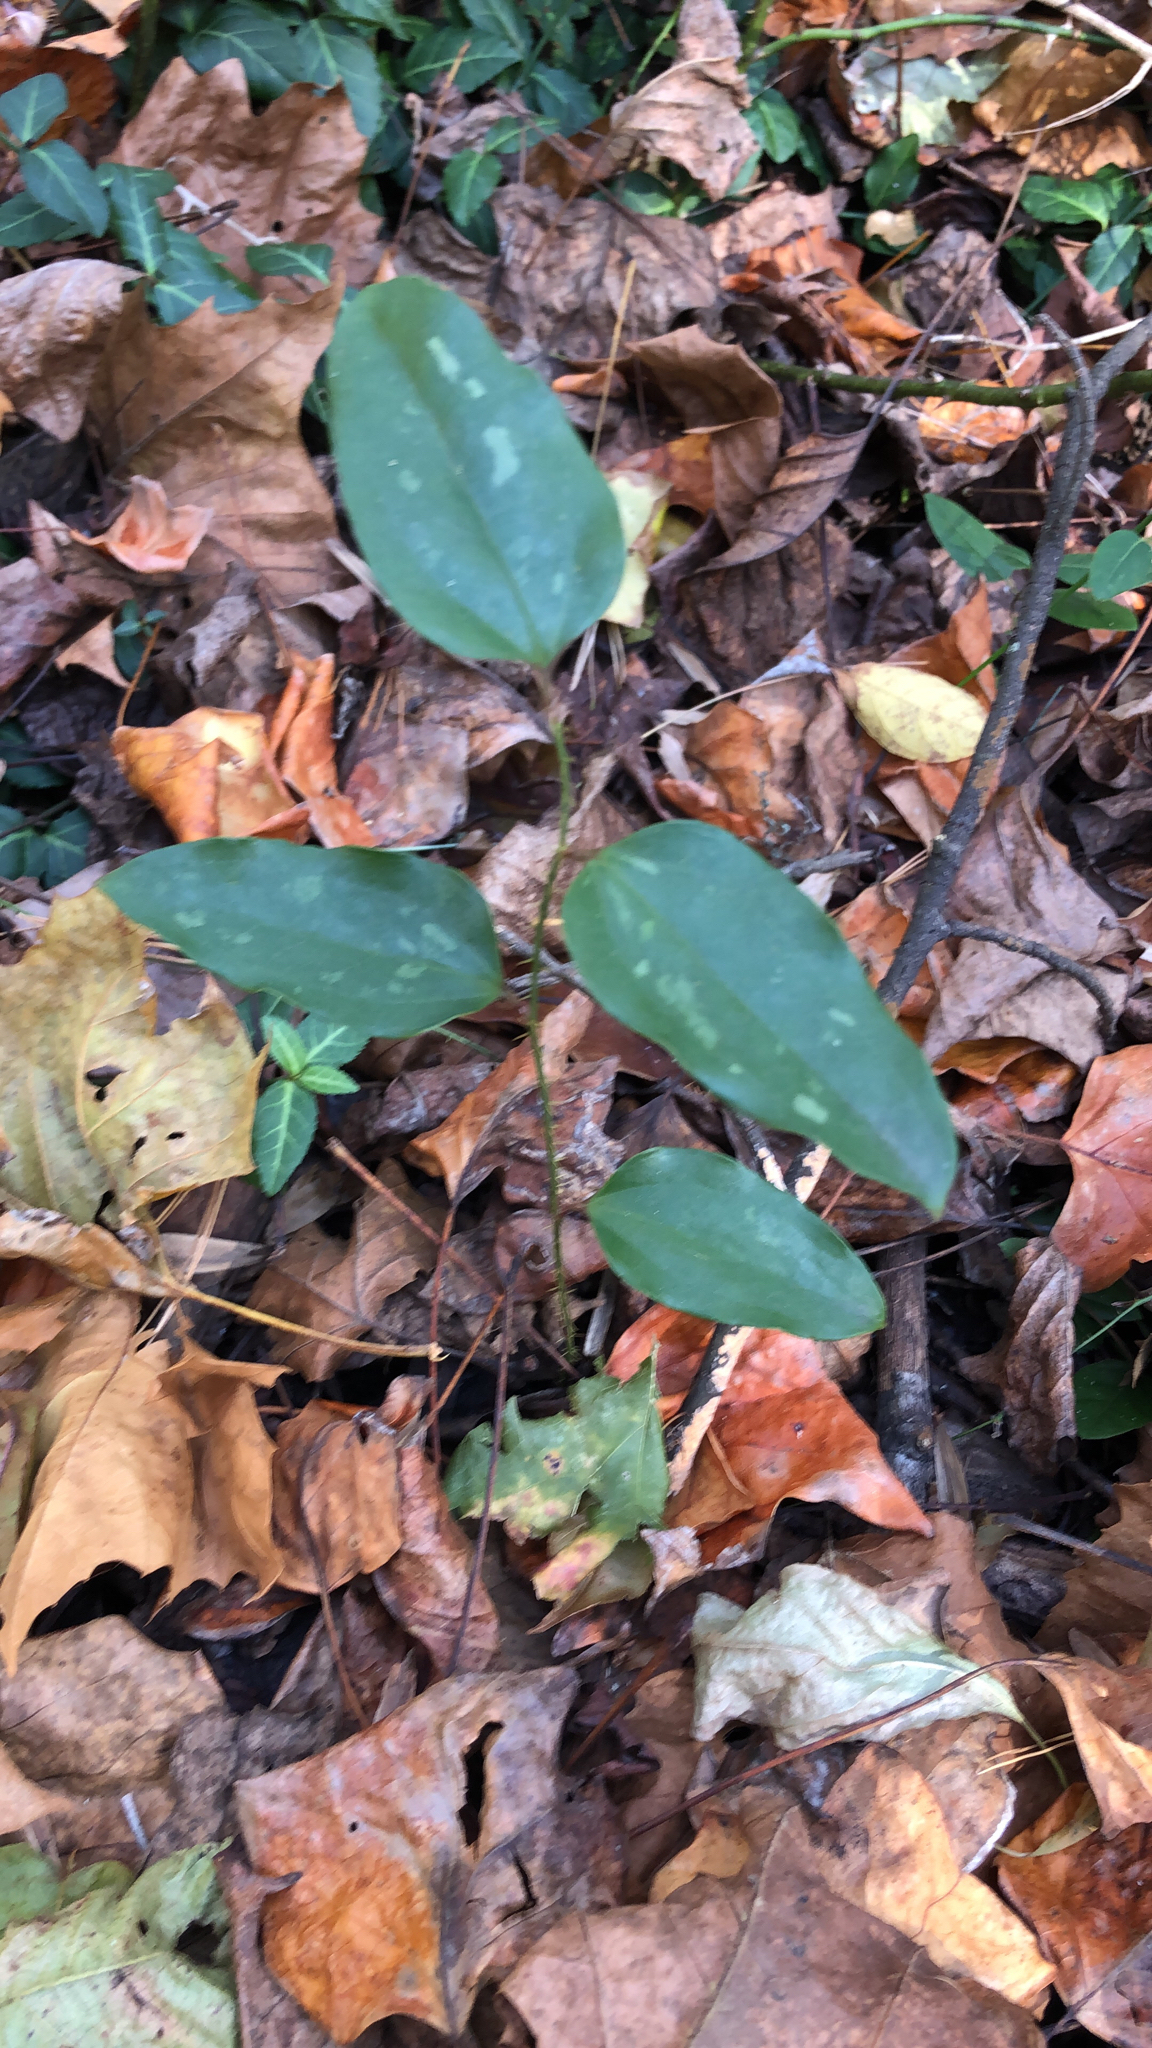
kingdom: Plantae
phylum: Tracheophyta
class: Liliopsida
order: Liliales
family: Smilacaceae
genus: Smilax
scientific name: Smilax glauca
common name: Cat greenbrier
